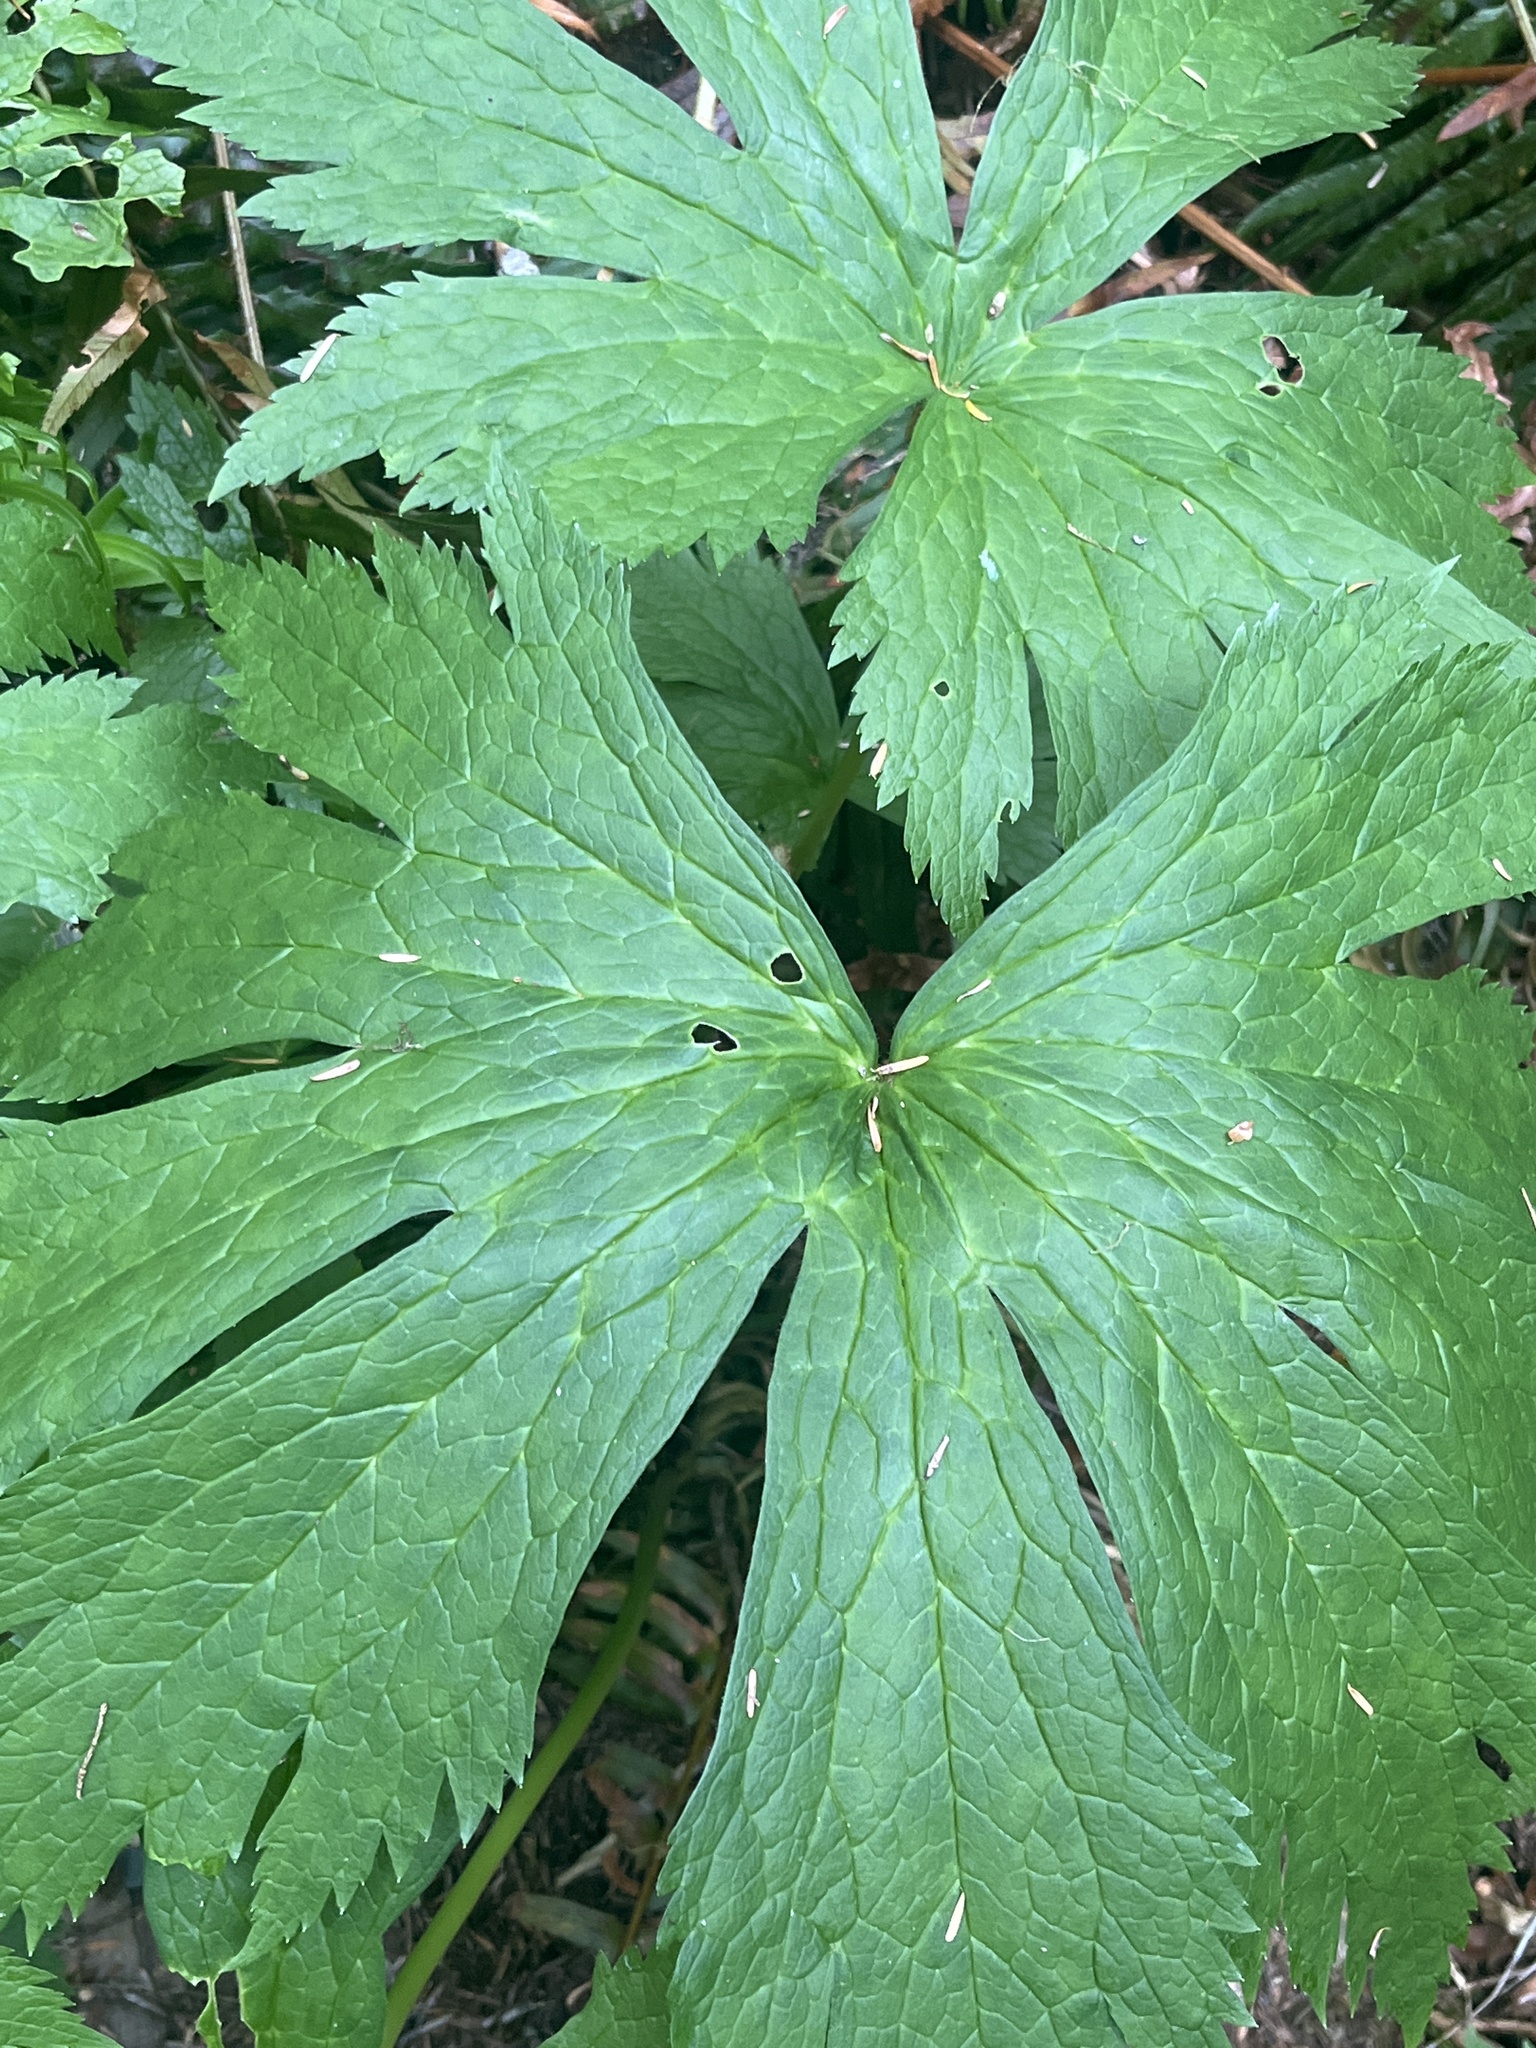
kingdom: Plantae
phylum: Tracheophyta
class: Magnoliopsida
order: Ranunculales
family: Ranunculaceae
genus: Trautvetteria
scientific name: Trautvetteria carolinensis
